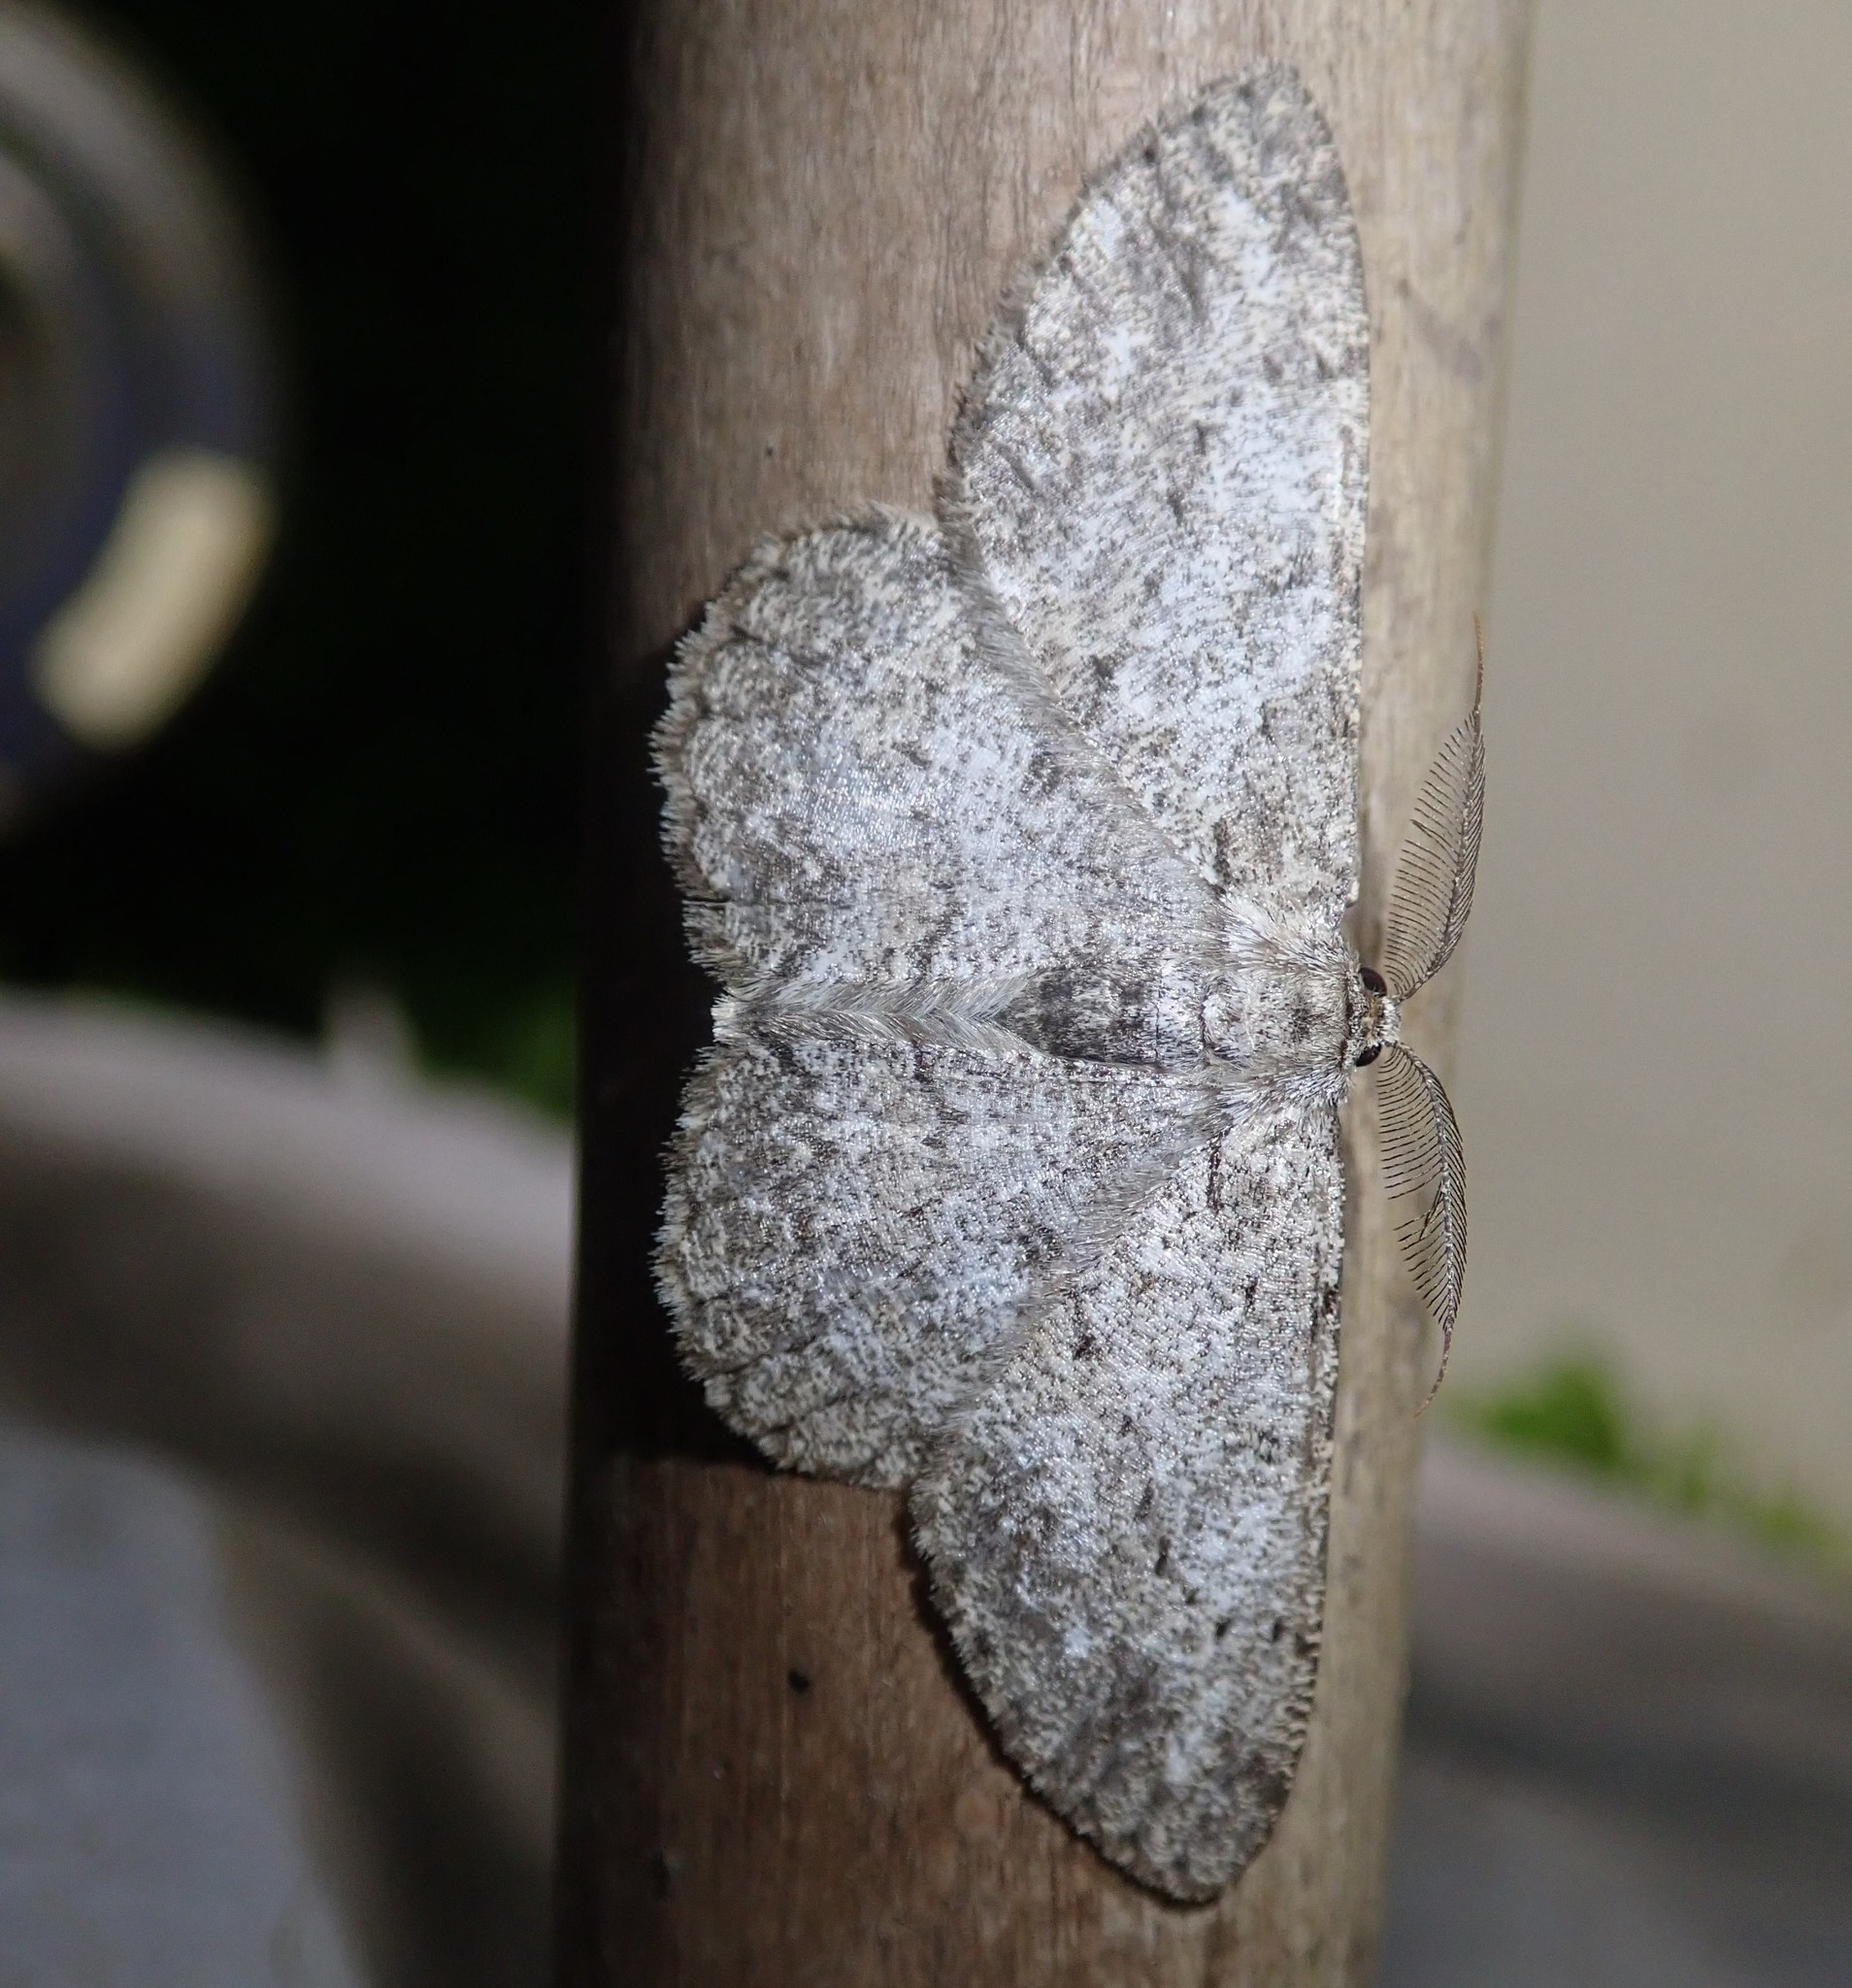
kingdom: Animalia
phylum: Arthropoda
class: Insecta
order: Lepidoptera
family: Geometridae
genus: Hypomecis
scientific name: Hypomecis punctinalis
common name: Pale oak beauty
